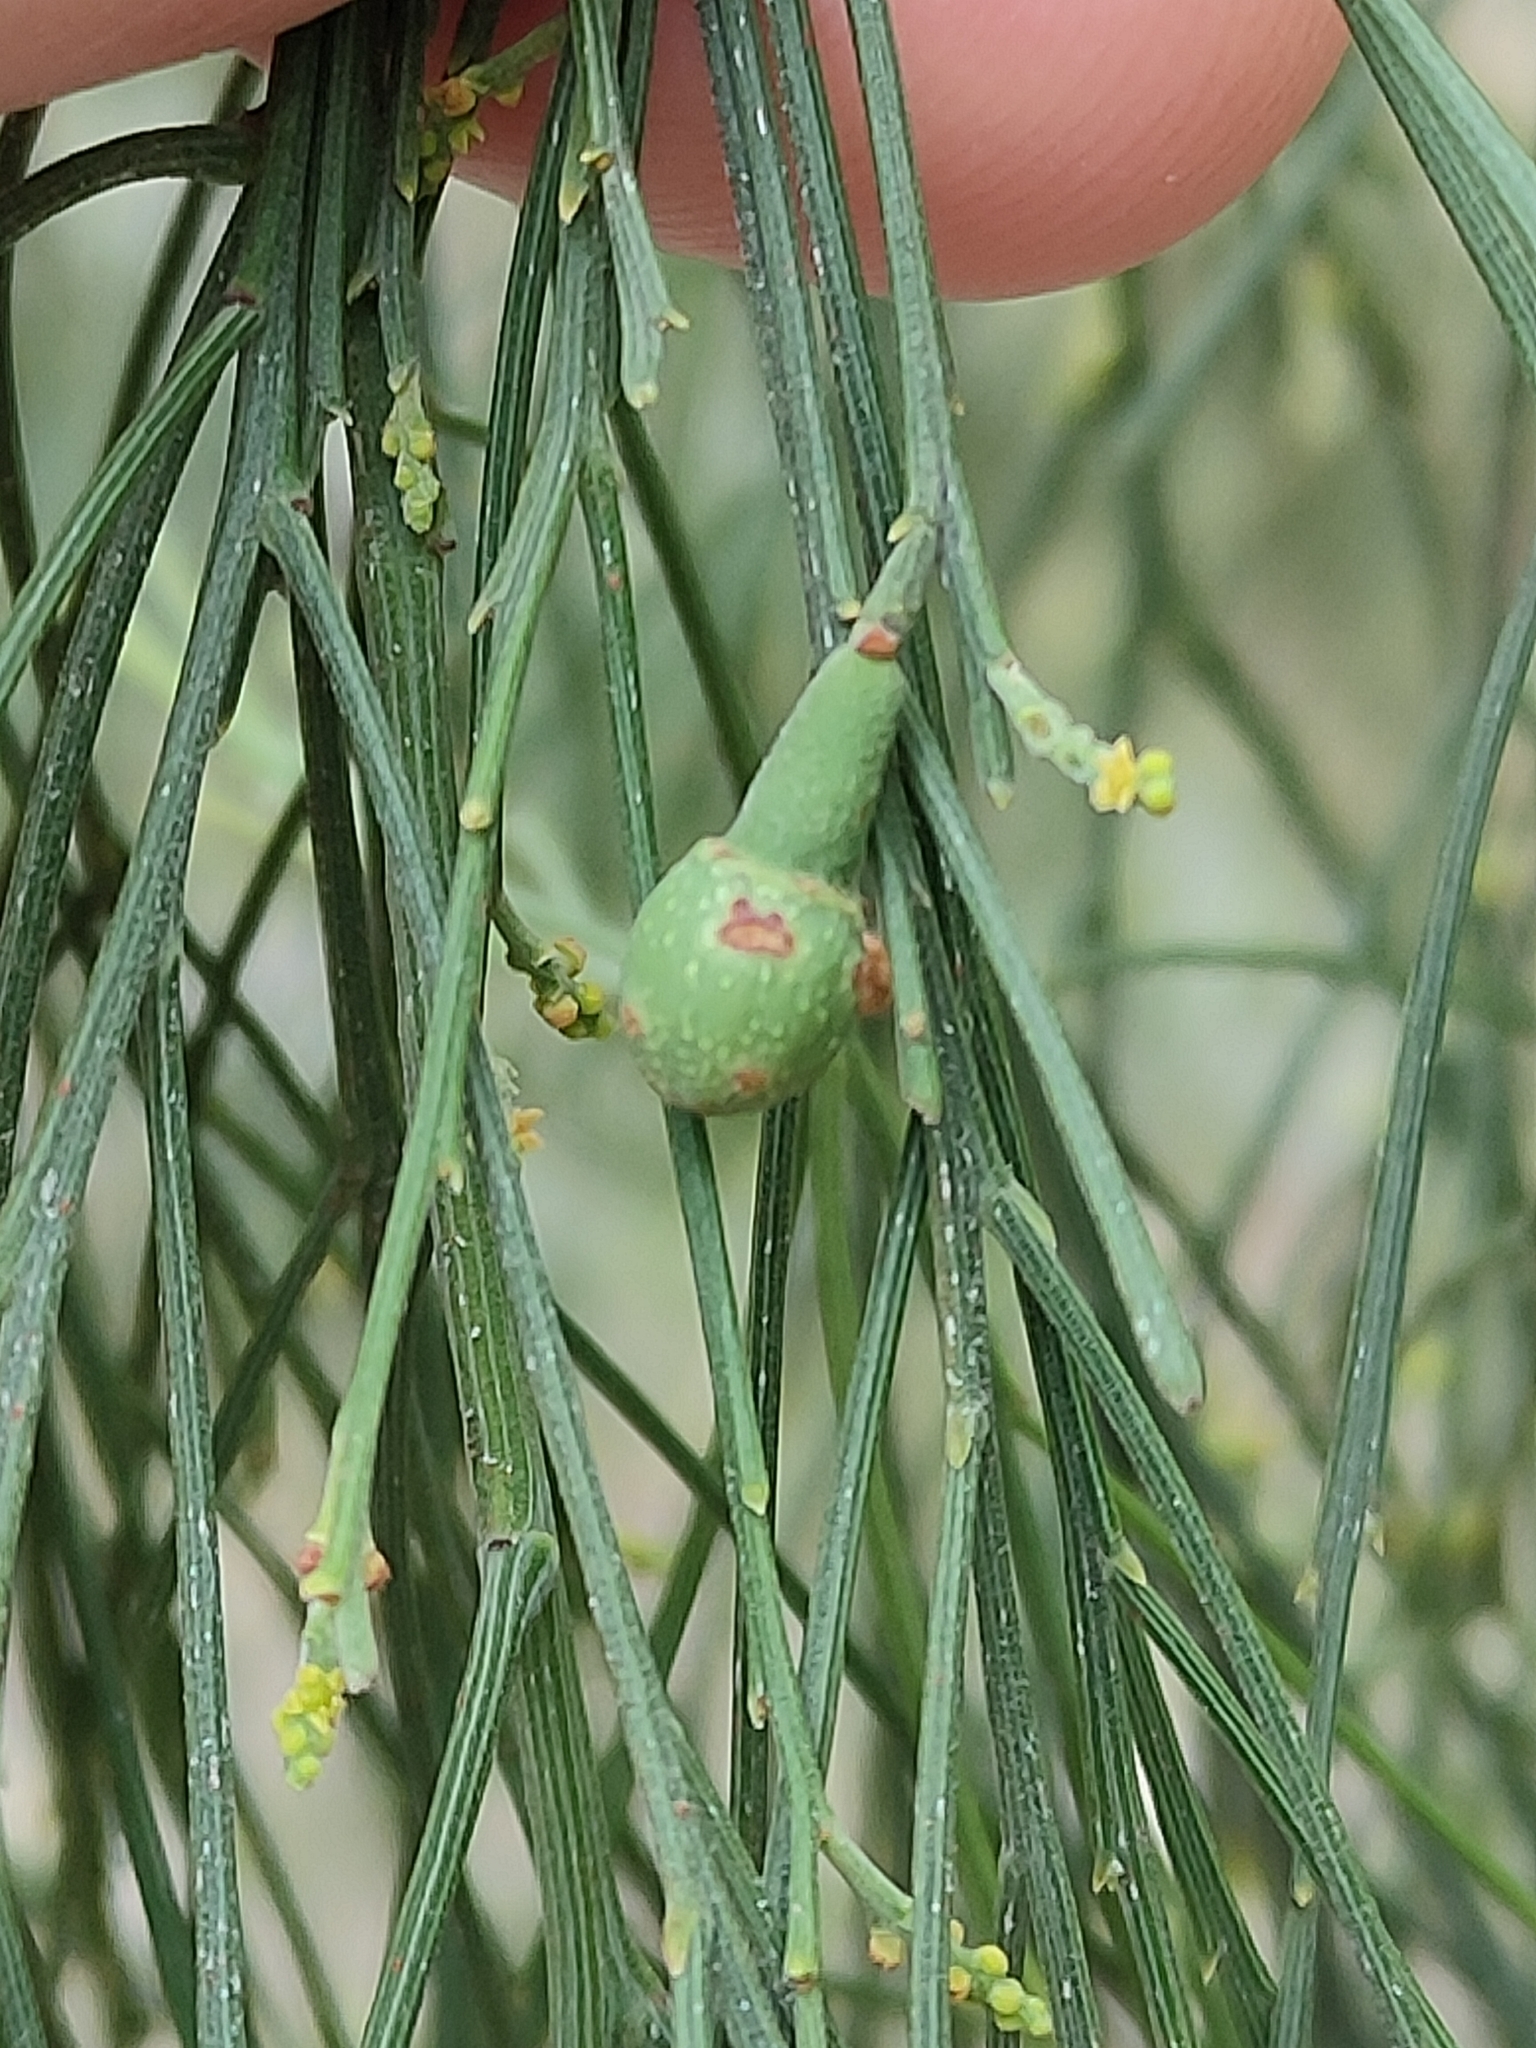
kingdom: Plantae
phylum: Tracheophyta
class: Magnoliopsida
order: Santalales
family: Santalaceae
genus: Exocarpos
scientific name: Exocarpos cupressiformis
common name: Cherry ballart
